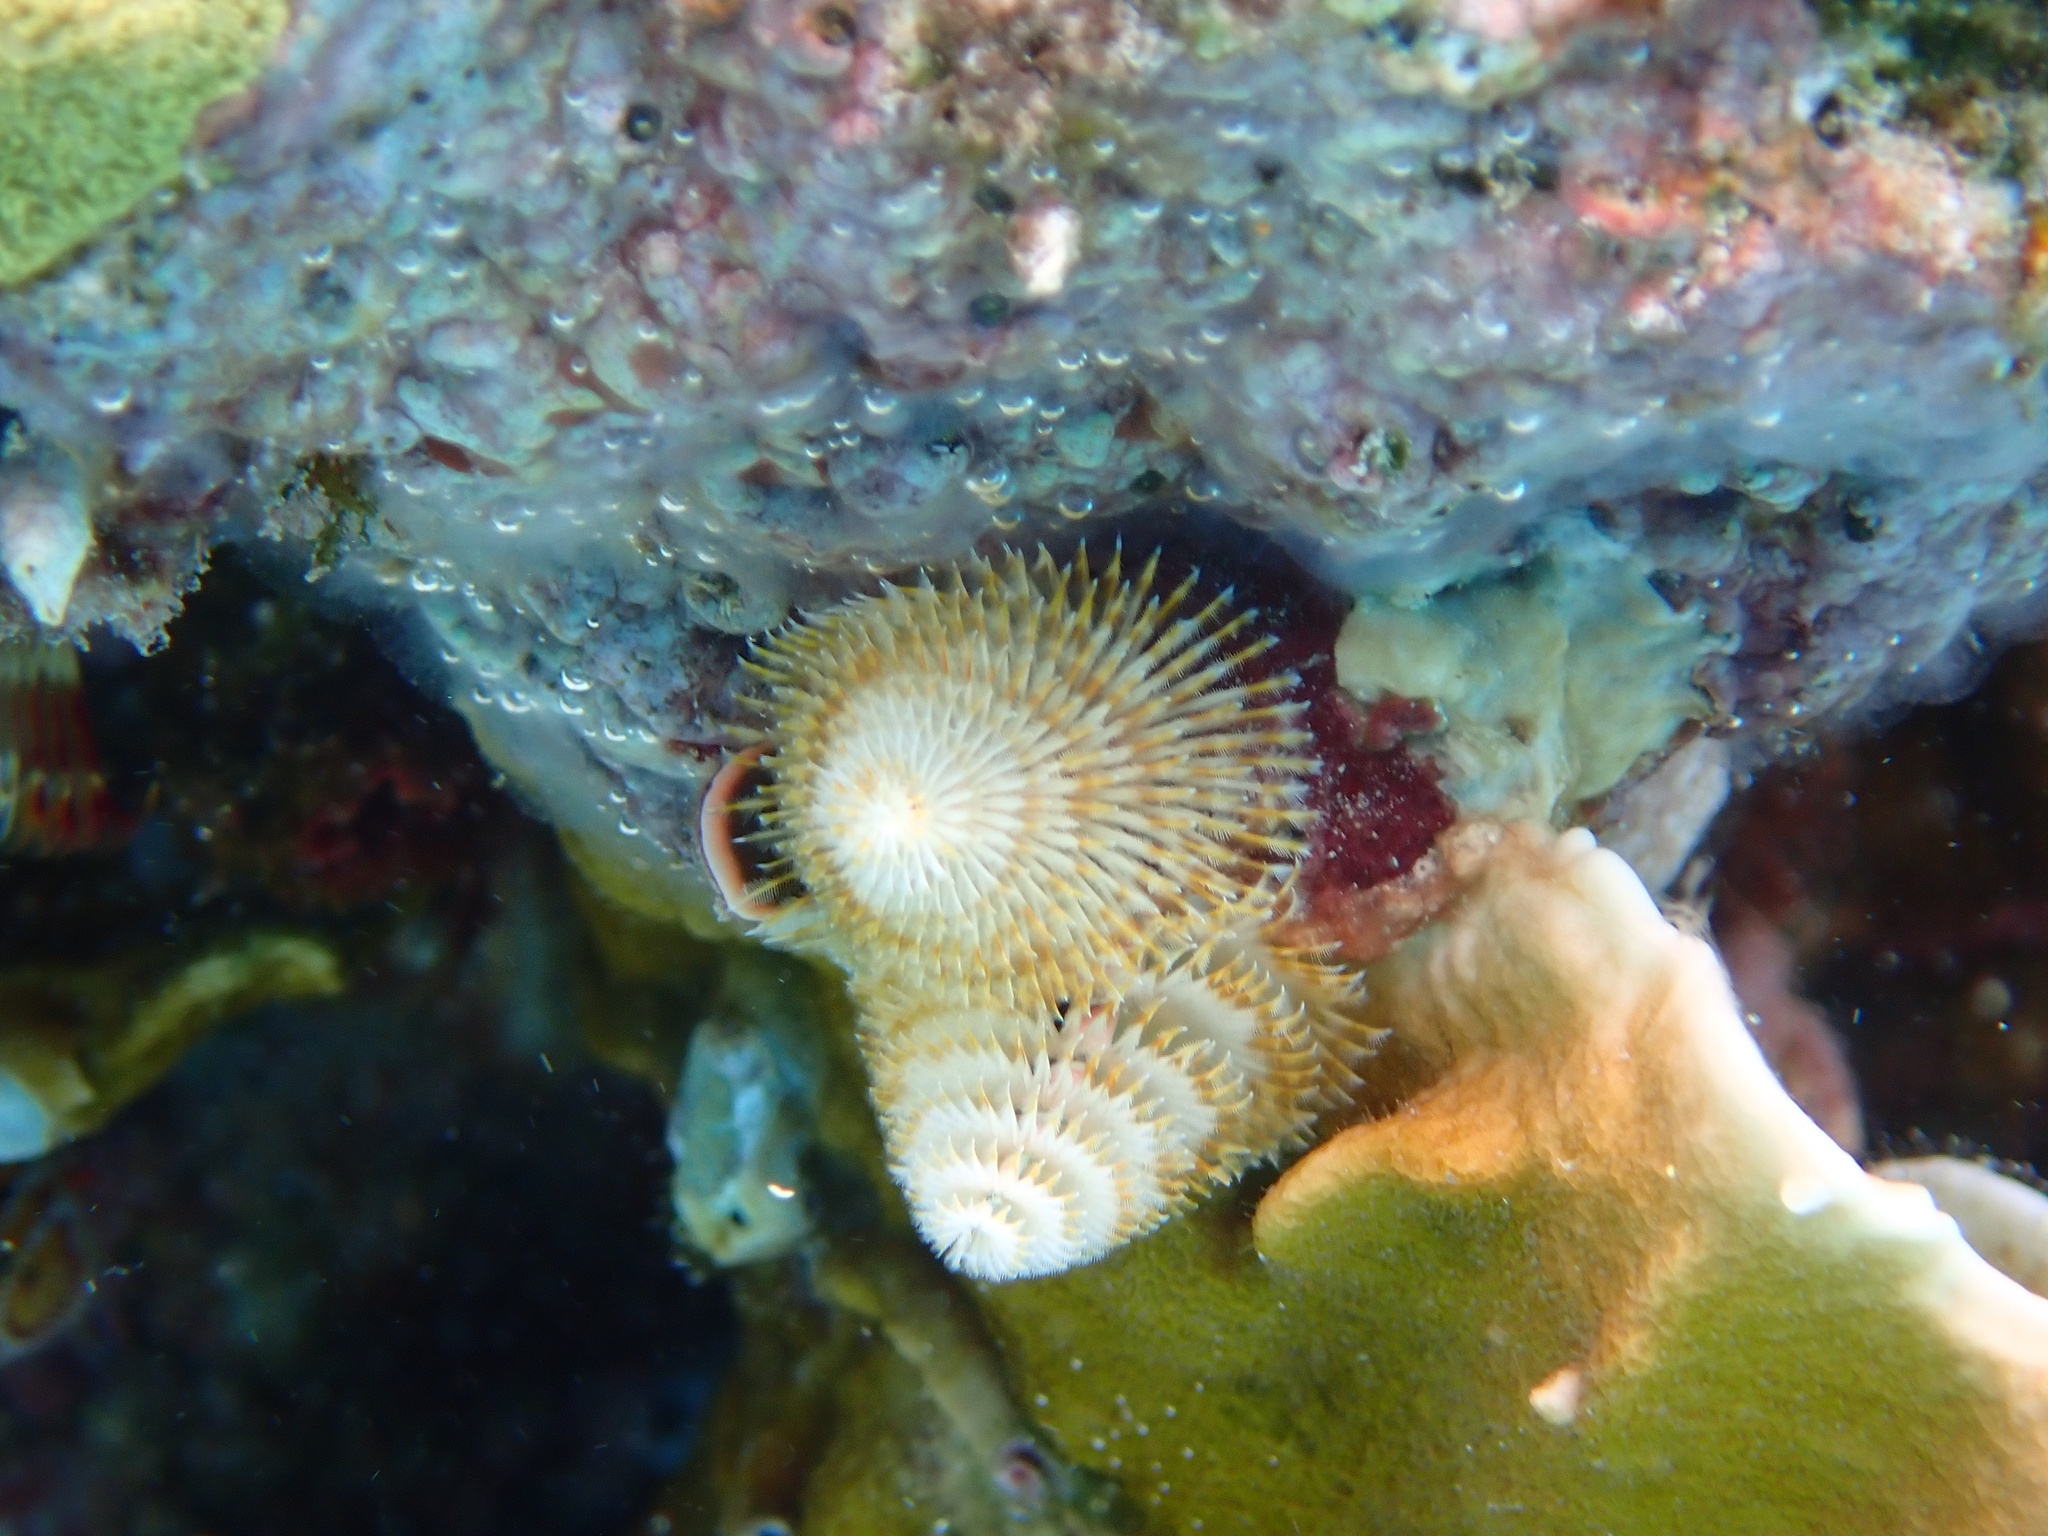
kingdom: Animalia
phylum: Annelida
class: Polychaeta
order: Sabellida
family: Serpulidae
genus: Spirobranchus
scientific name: Spirobranchus giganteus
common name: Christmas tree worm
